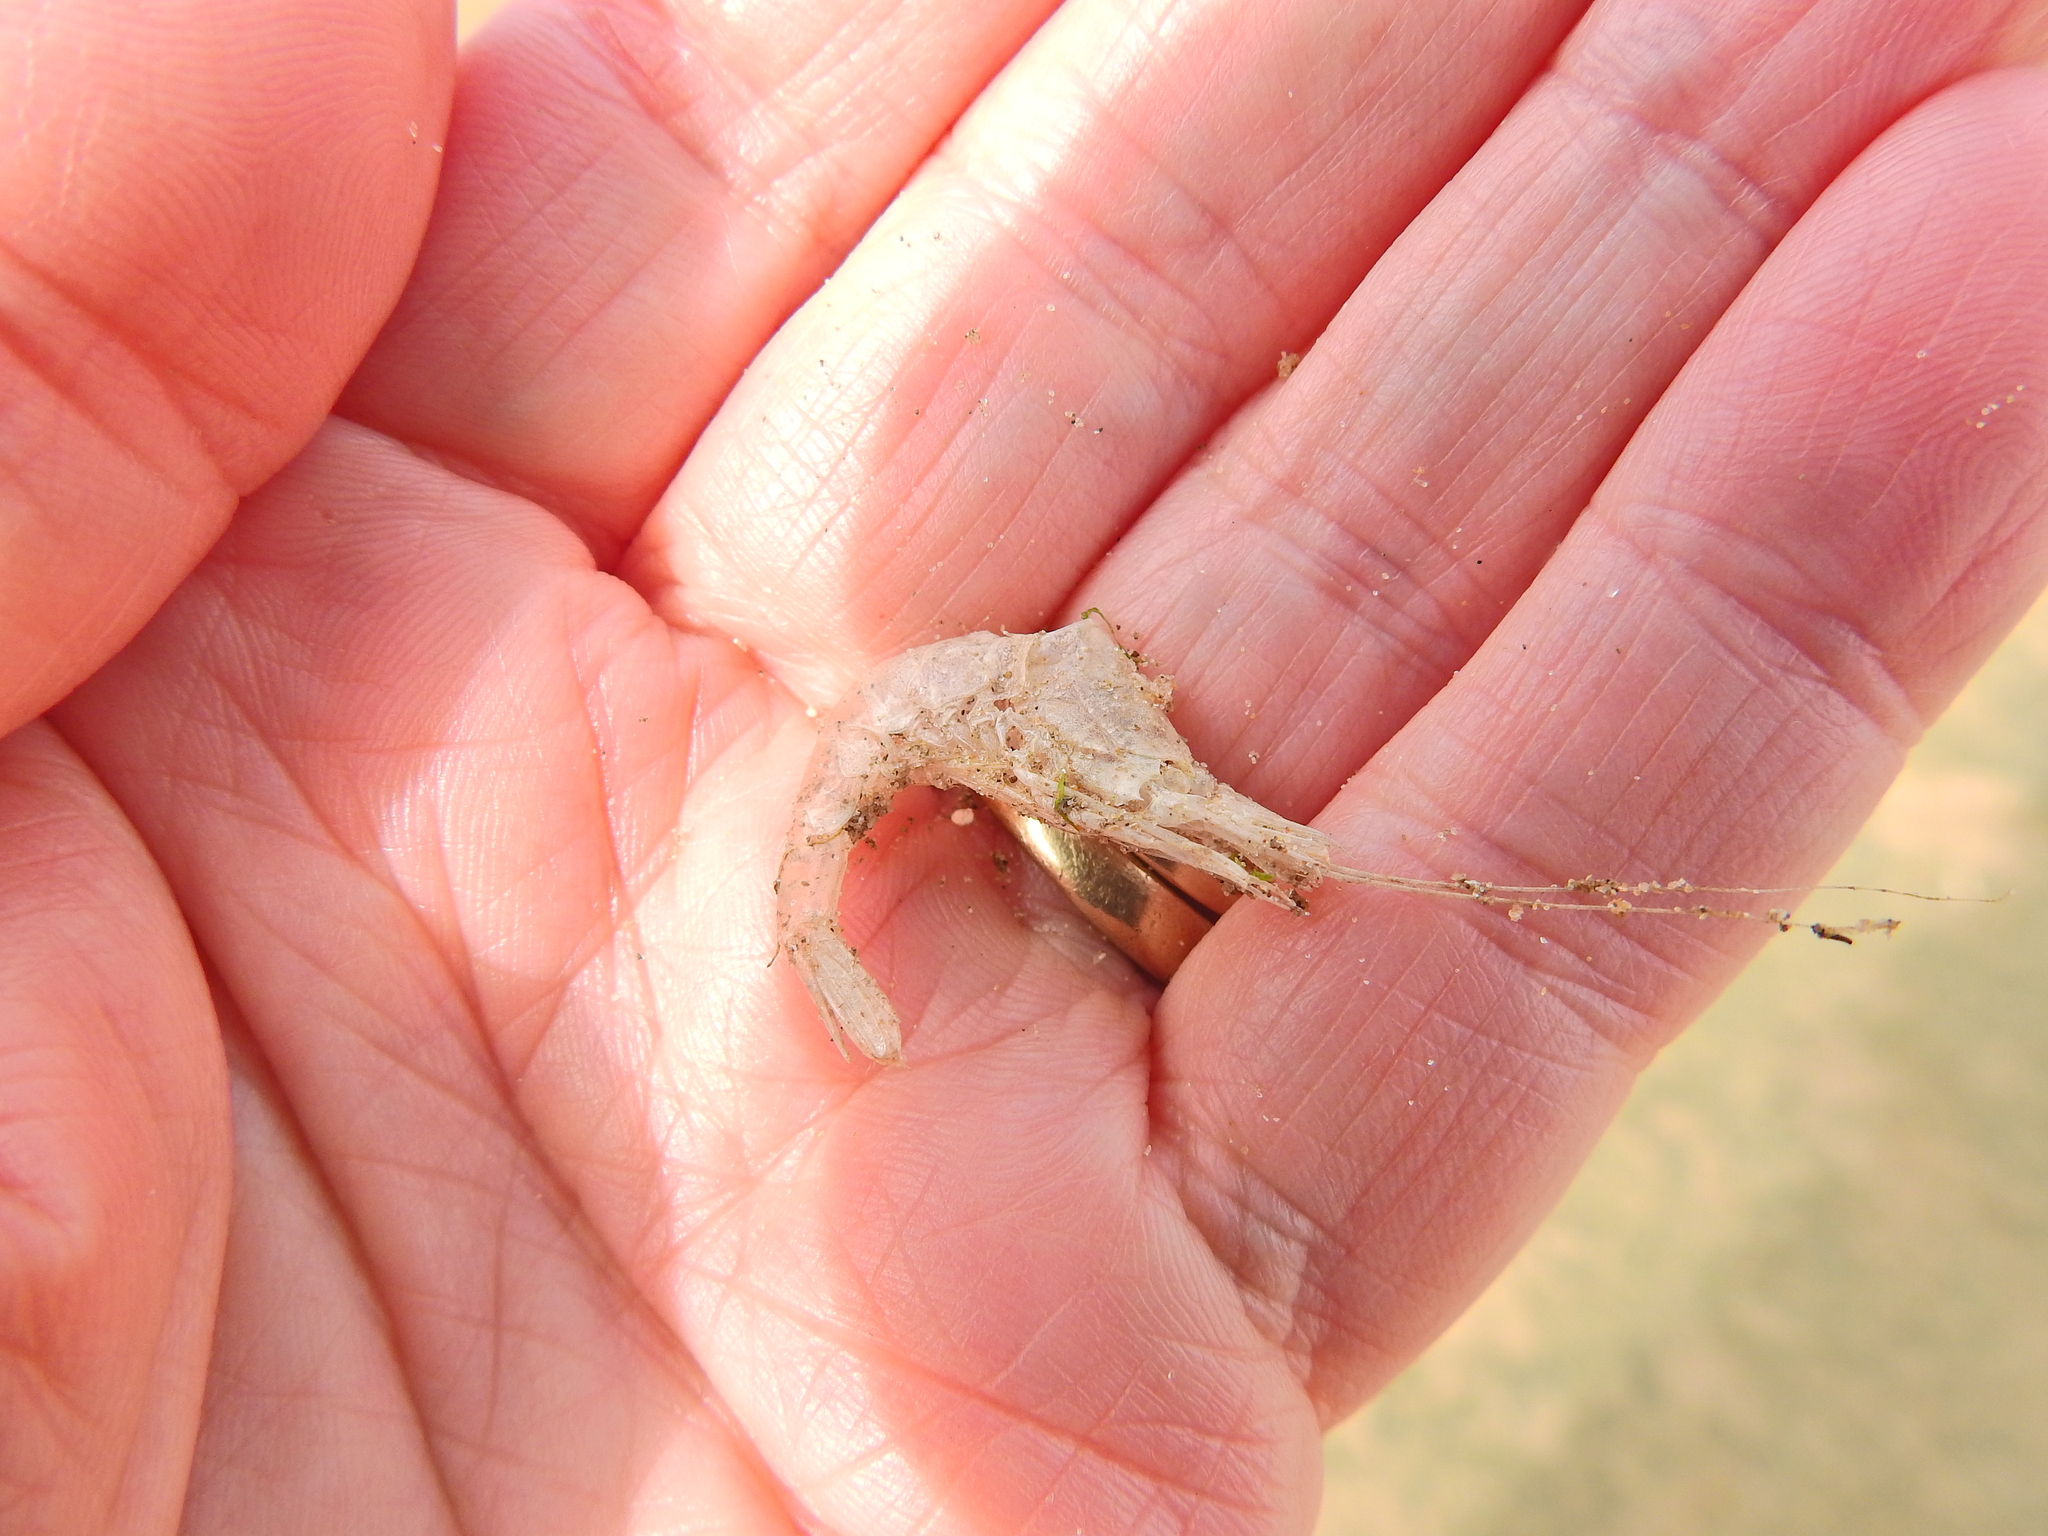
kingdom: Animalia
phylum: Arthropoda
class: Malacostraca
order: Decapoda
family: Crangonidae
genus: Crangon
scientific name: Crangon crangon
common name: Brown shrimp
